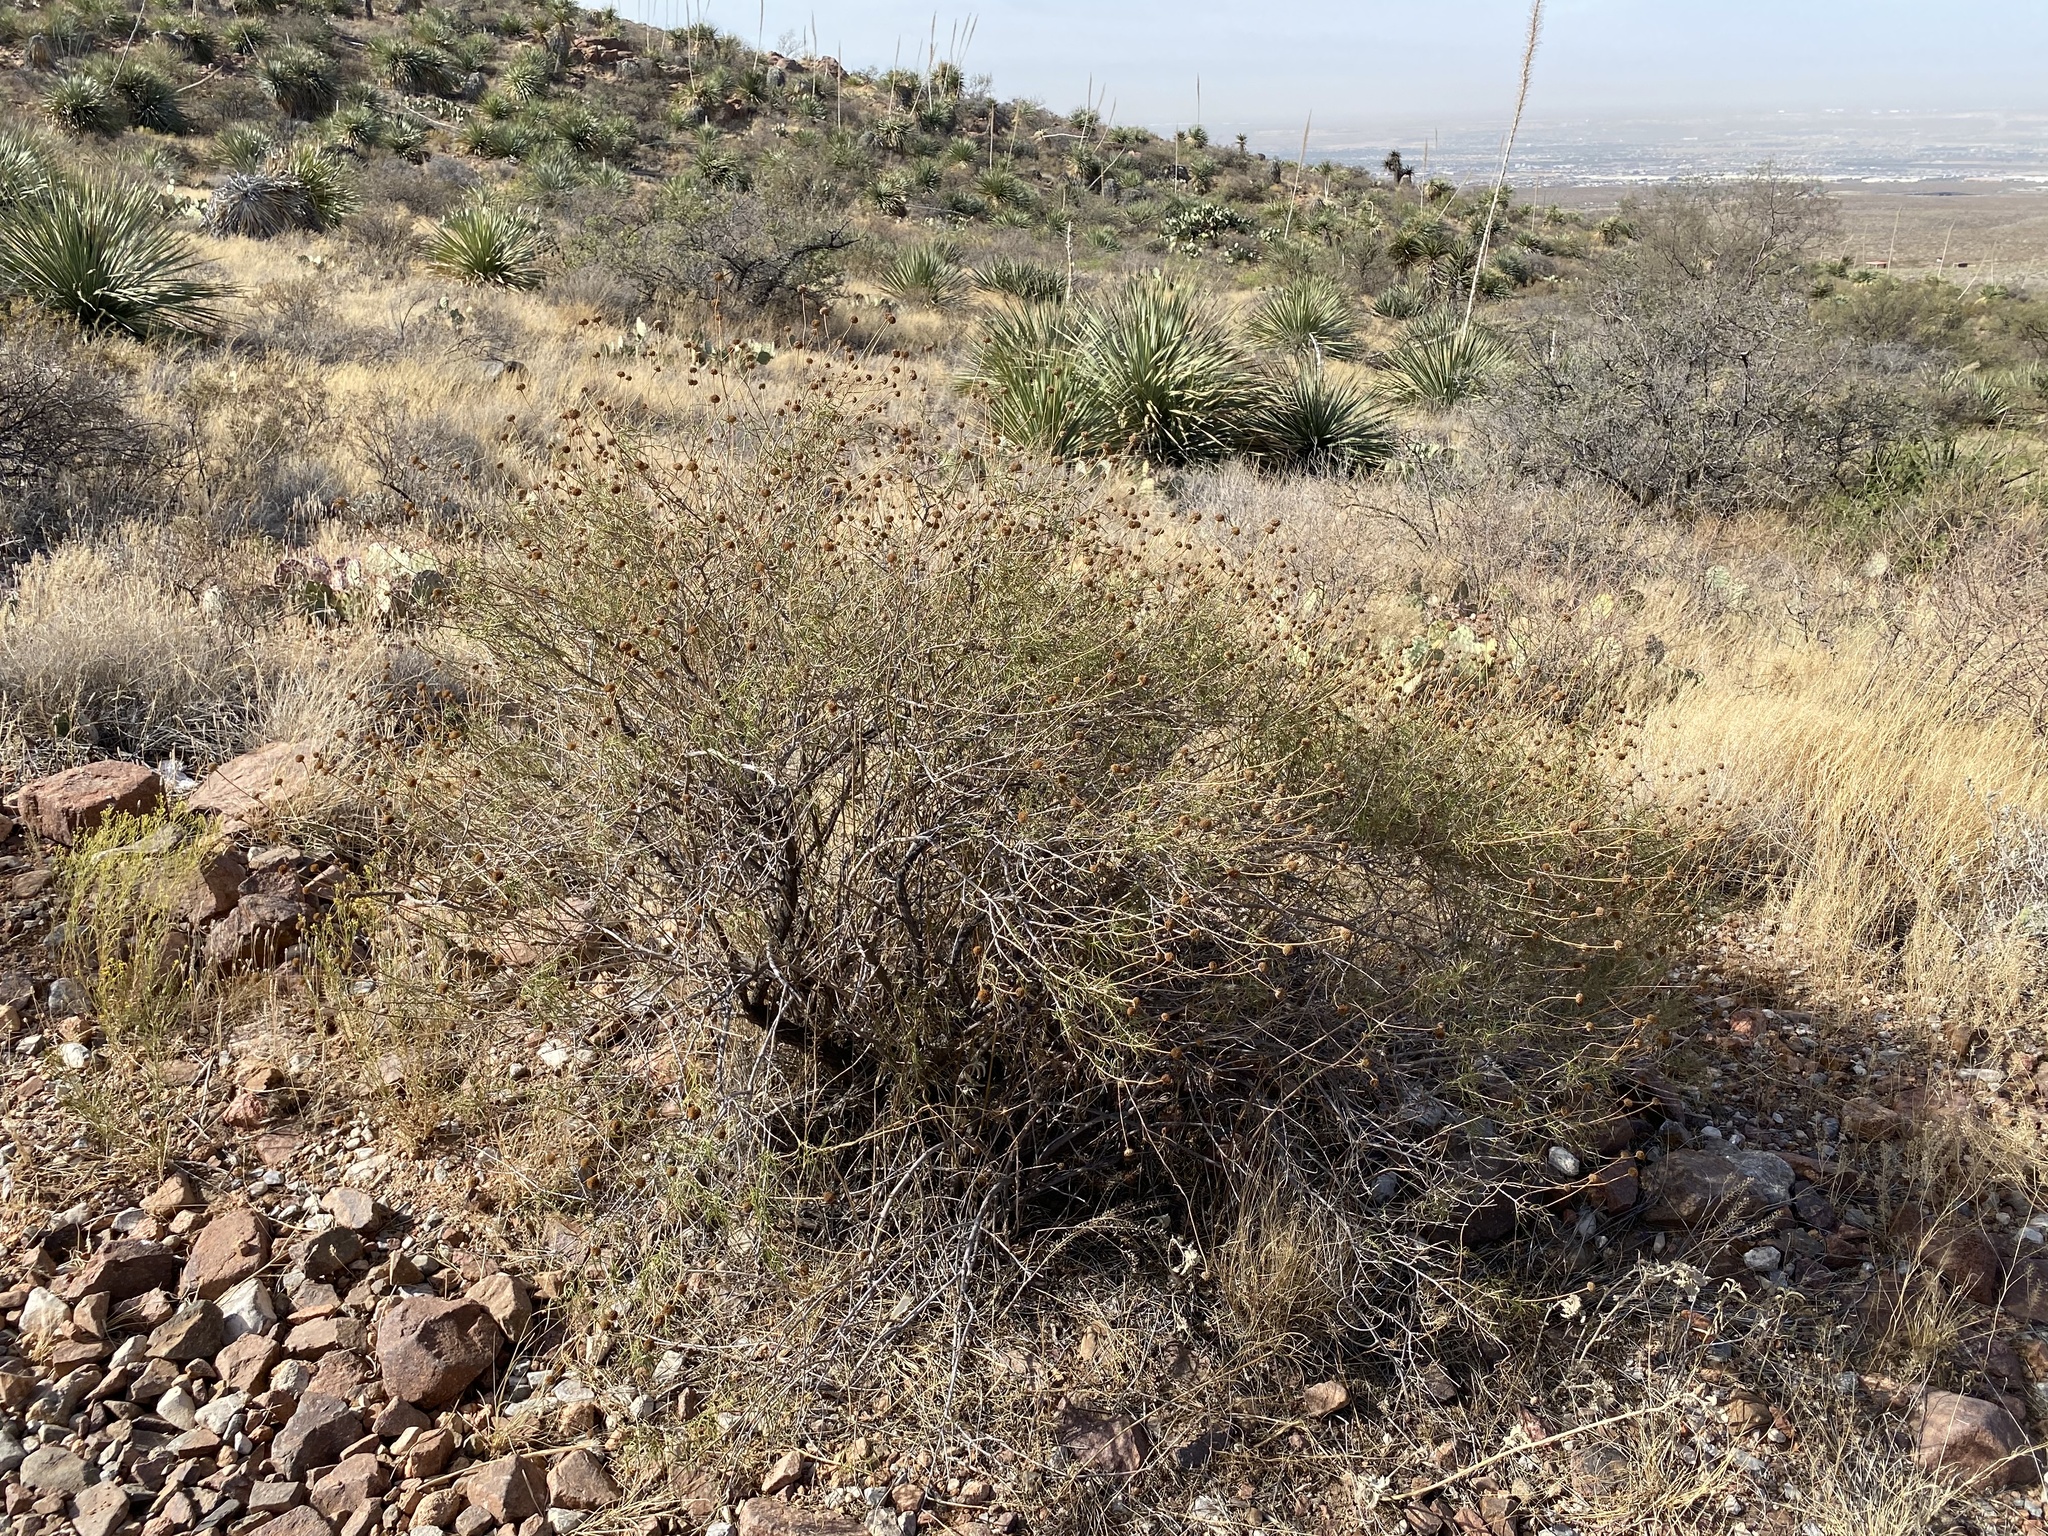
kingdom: Plantae
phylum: Tracheophyta
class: Magnoliopsida
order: Asterales
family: Asteraceae
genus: Sidneya
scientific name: Sidneya tenuifolia
